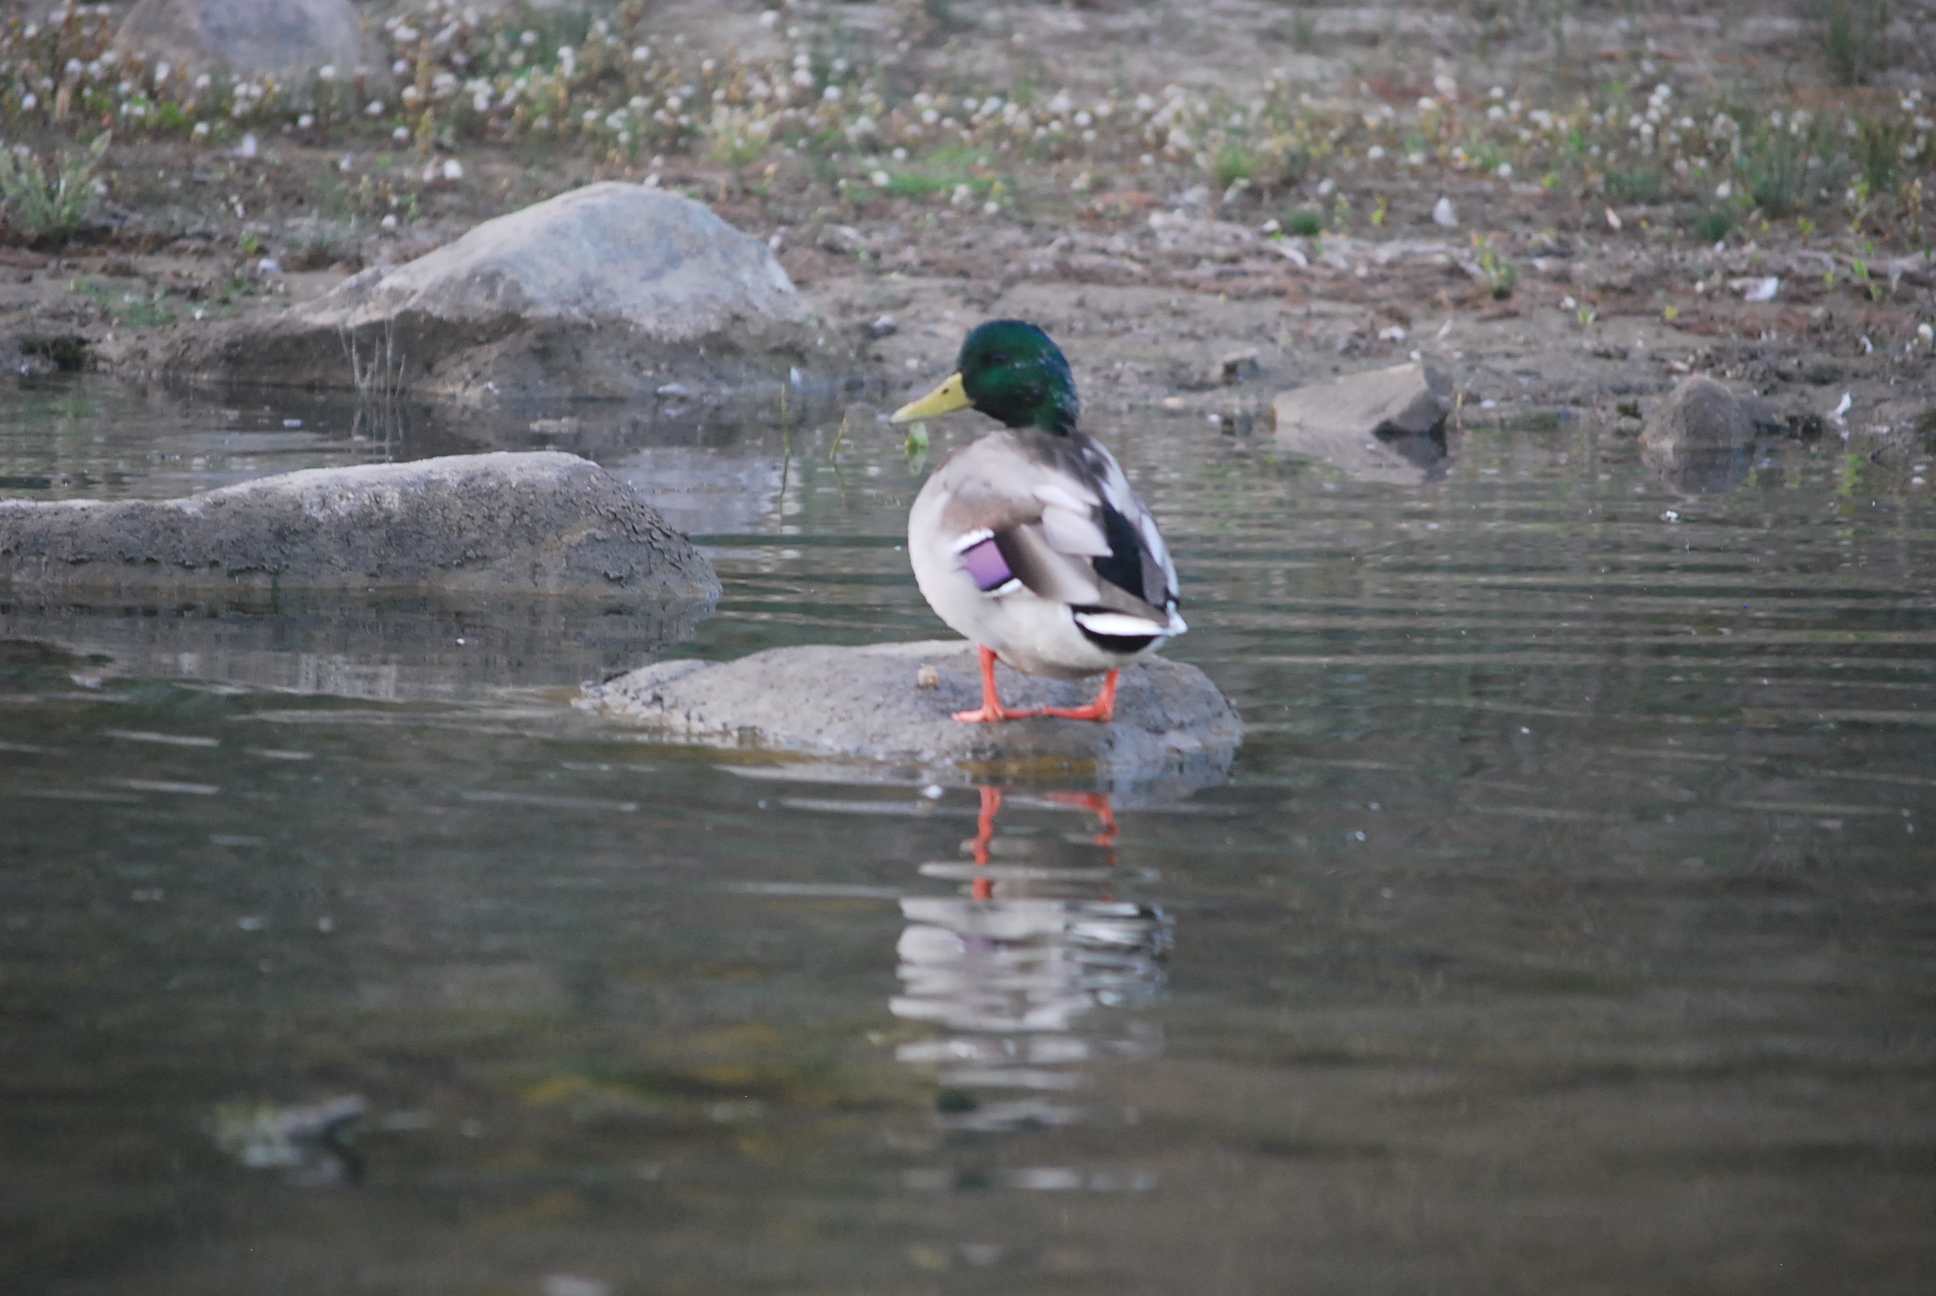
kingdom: Animalia
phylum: Chordata
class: Aves
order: Anseriformes
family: Anatidae
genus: Anas
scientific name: Anas platyrhynchos
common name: Mallard
